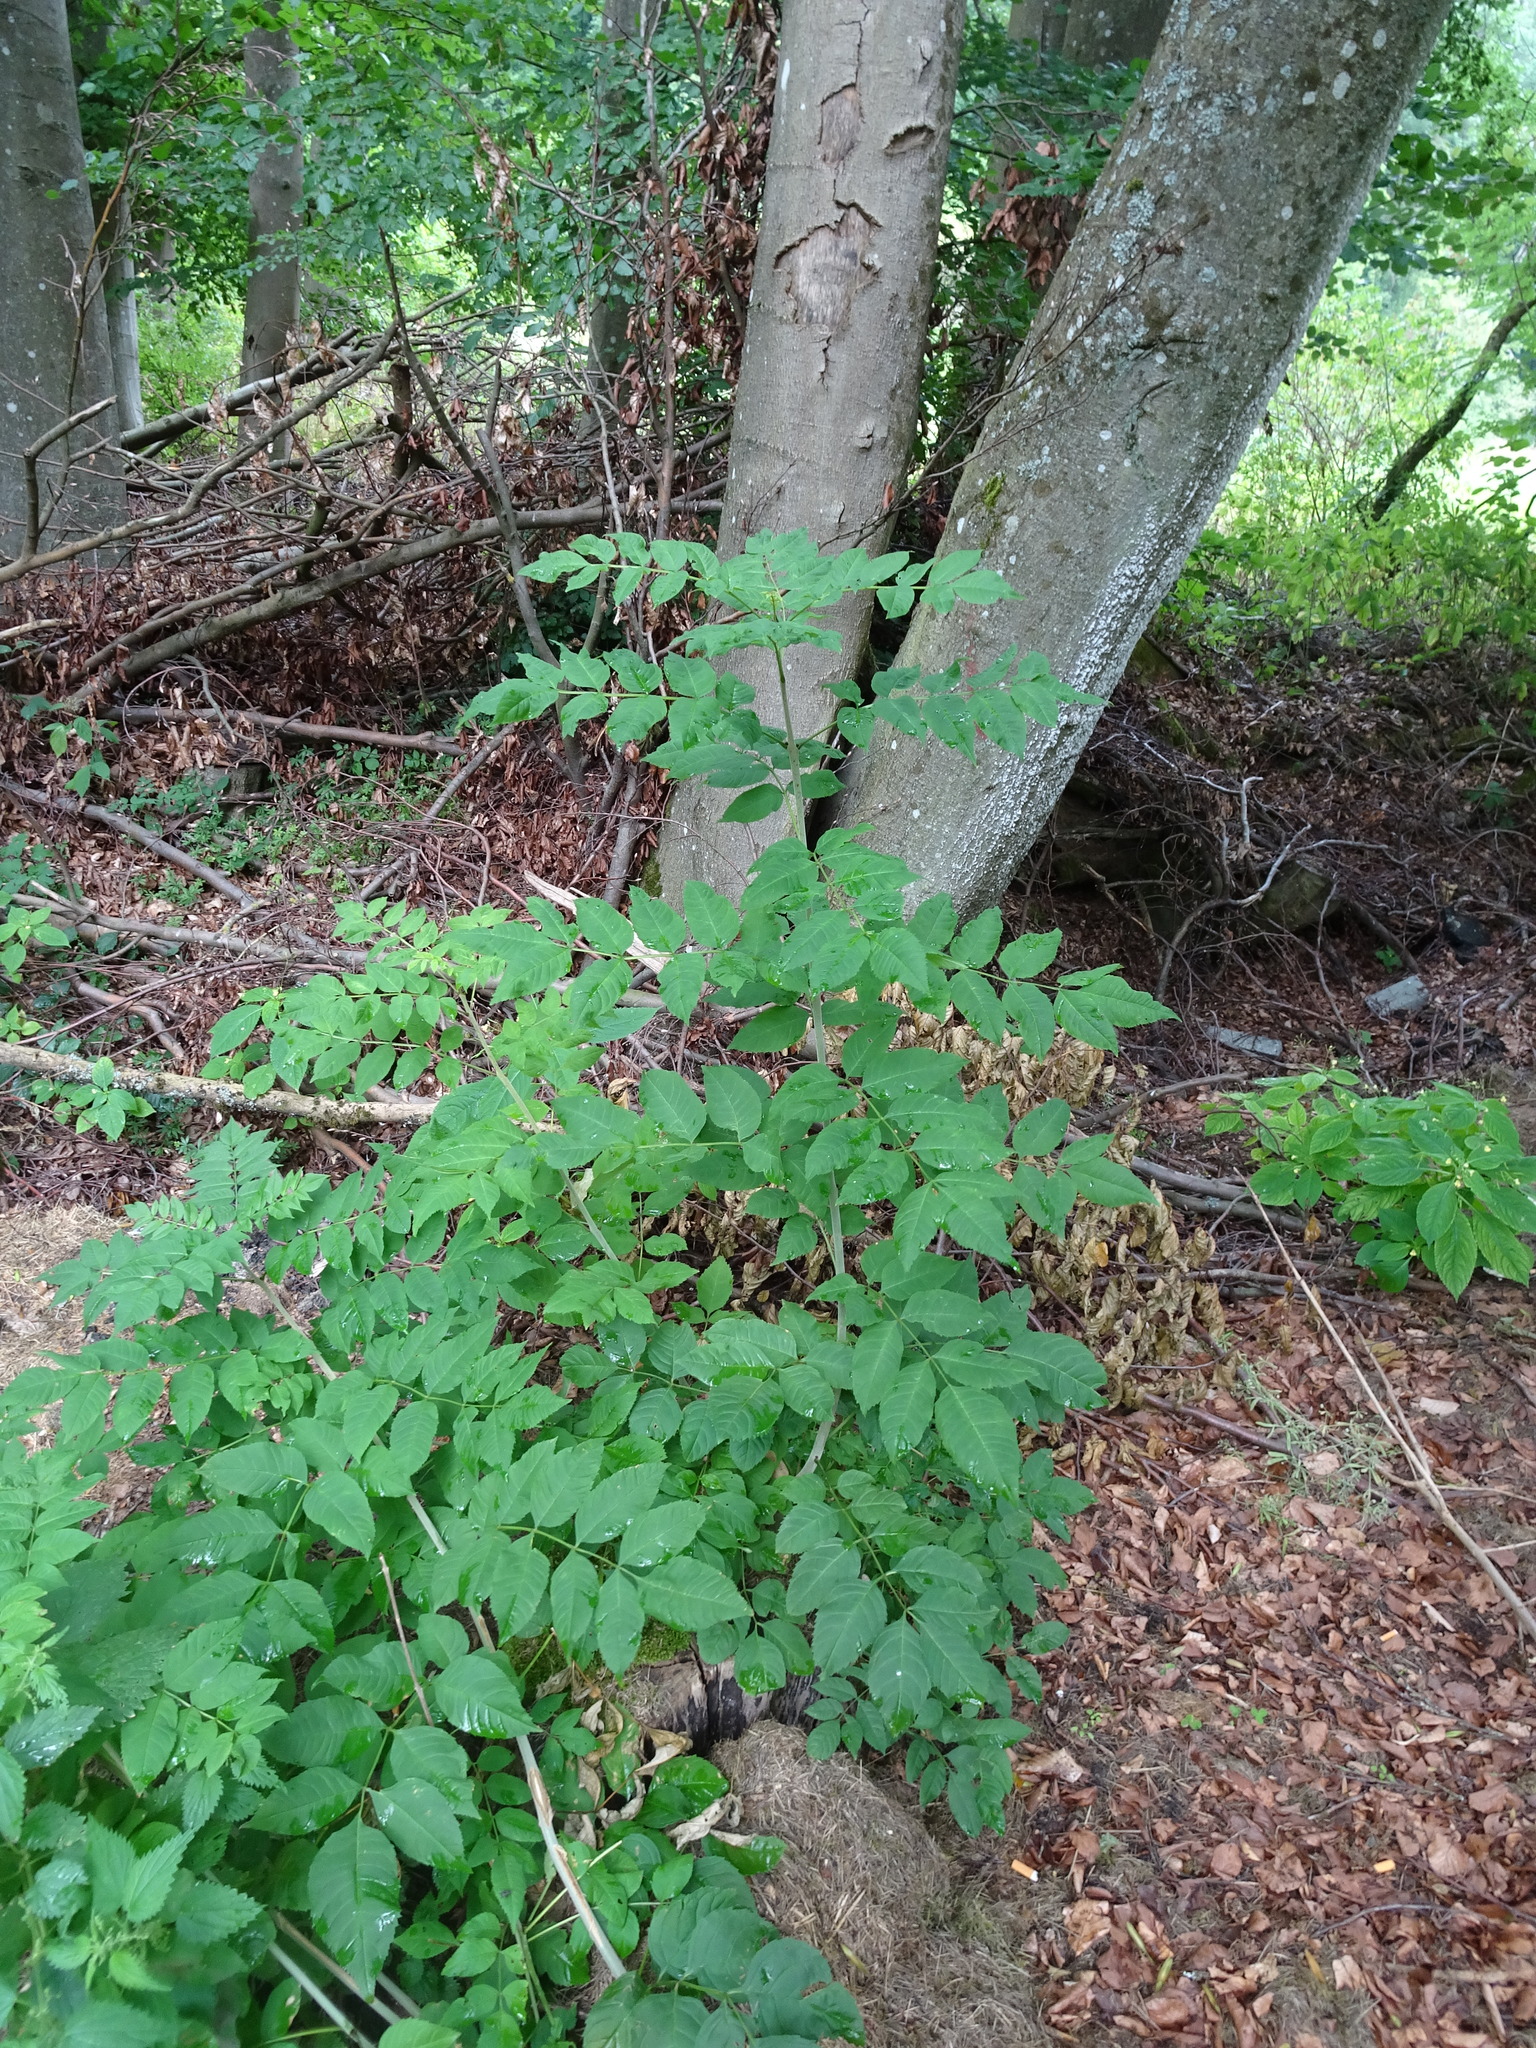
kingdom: Plantae
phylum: Tracheophyta
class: Magnoliopsida
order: Lamiales
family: Oleaceae
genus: Fraxinus
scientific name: Fraxinus excelsior
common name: European ash
